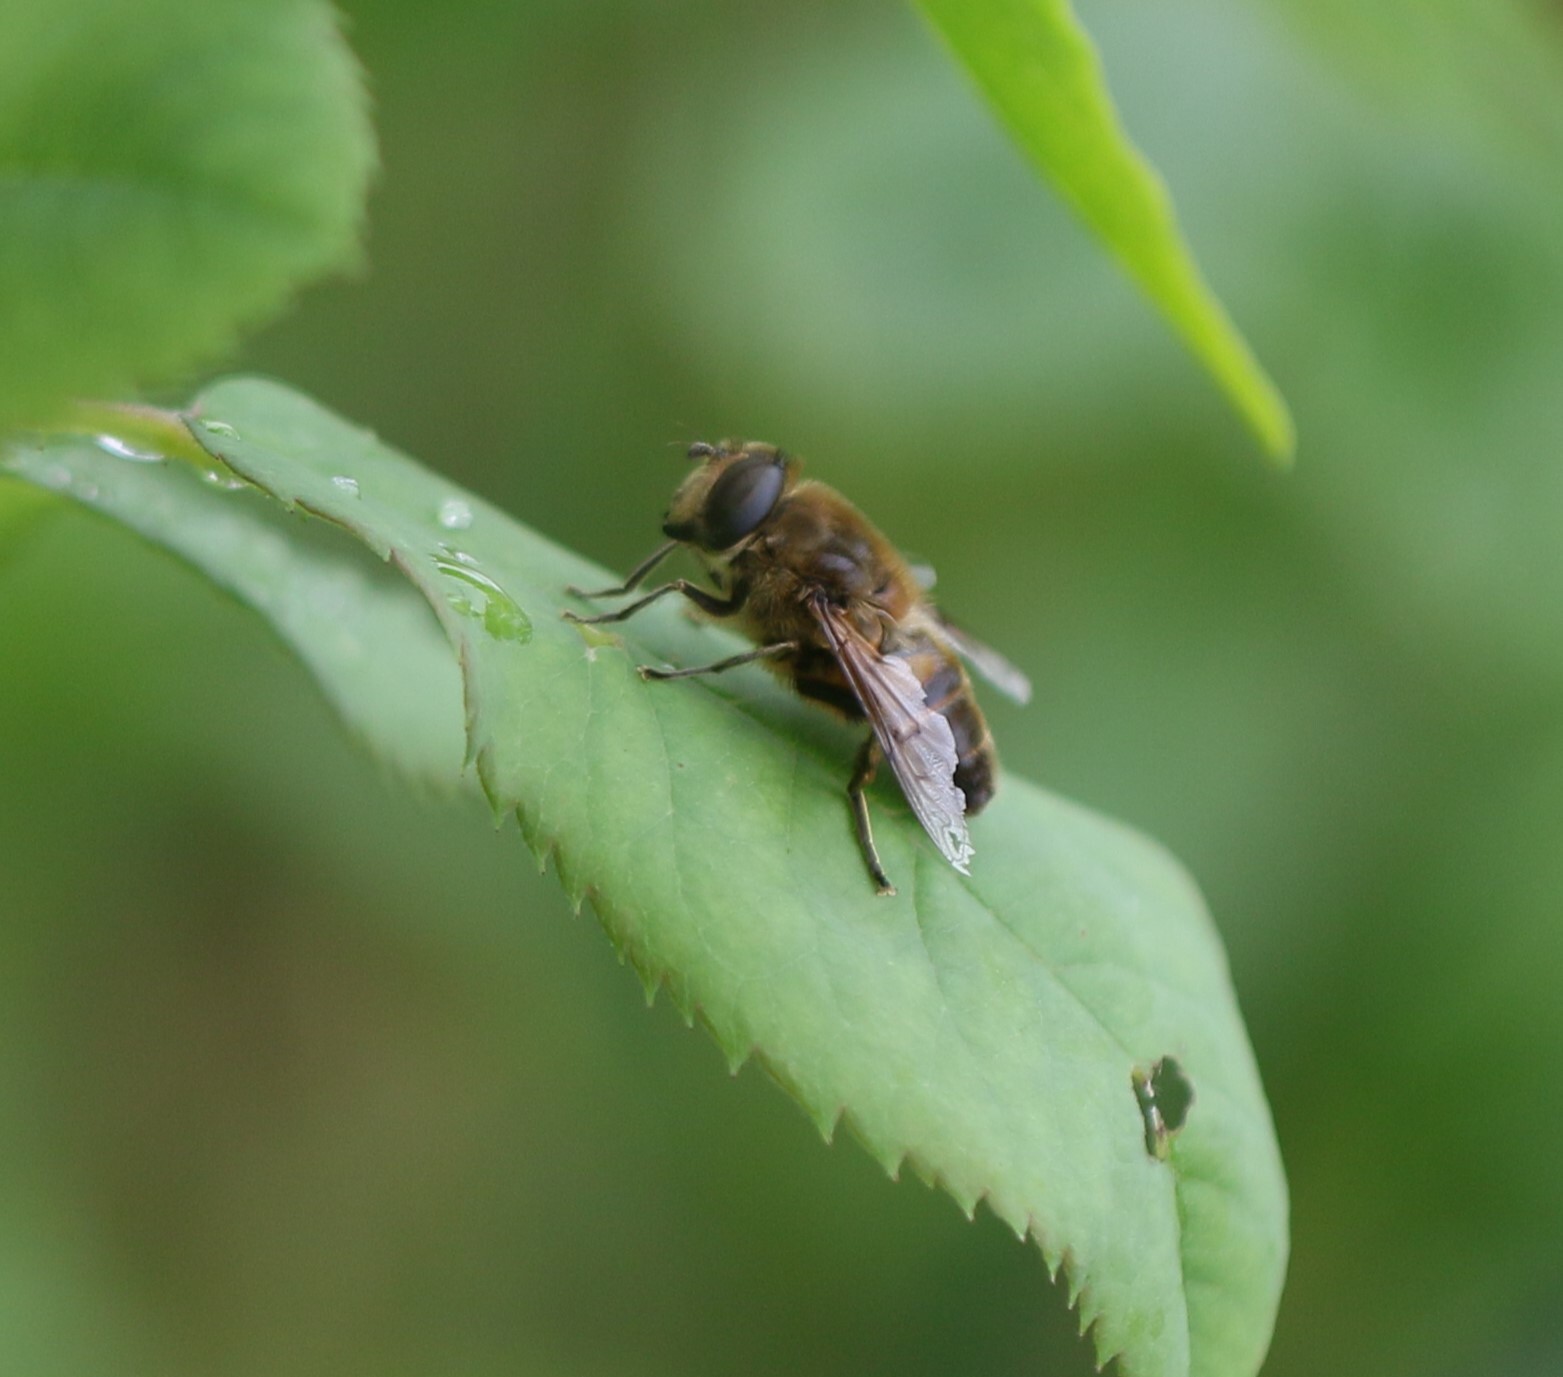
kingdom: Animalia
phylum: Arthropoda
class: Insecta
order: Diptera
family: Syrphidae
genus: Eristalis
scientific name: Eristalis tenax
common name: Drone fly
